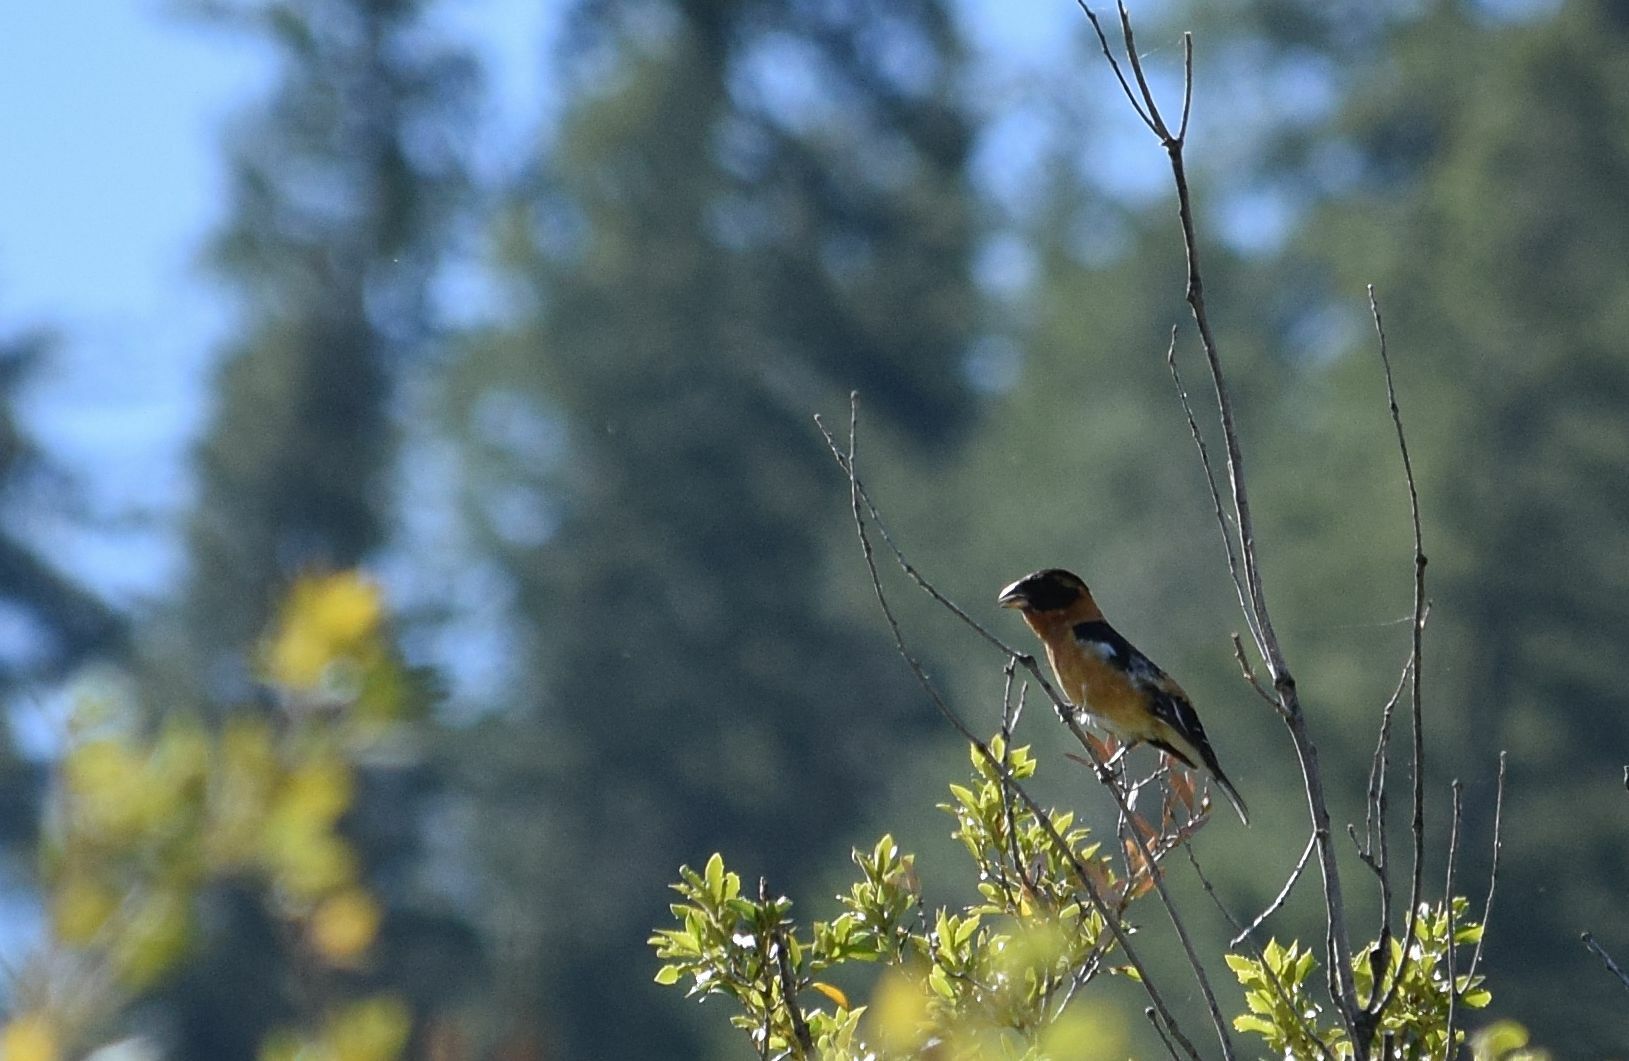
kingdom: Animalia
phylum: Chordata
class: Aves
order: Passeriformes
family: Cardinalidae
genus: Pheucticus
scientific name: Pheucticus melanocephalus
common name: Black-headed grosbeak
